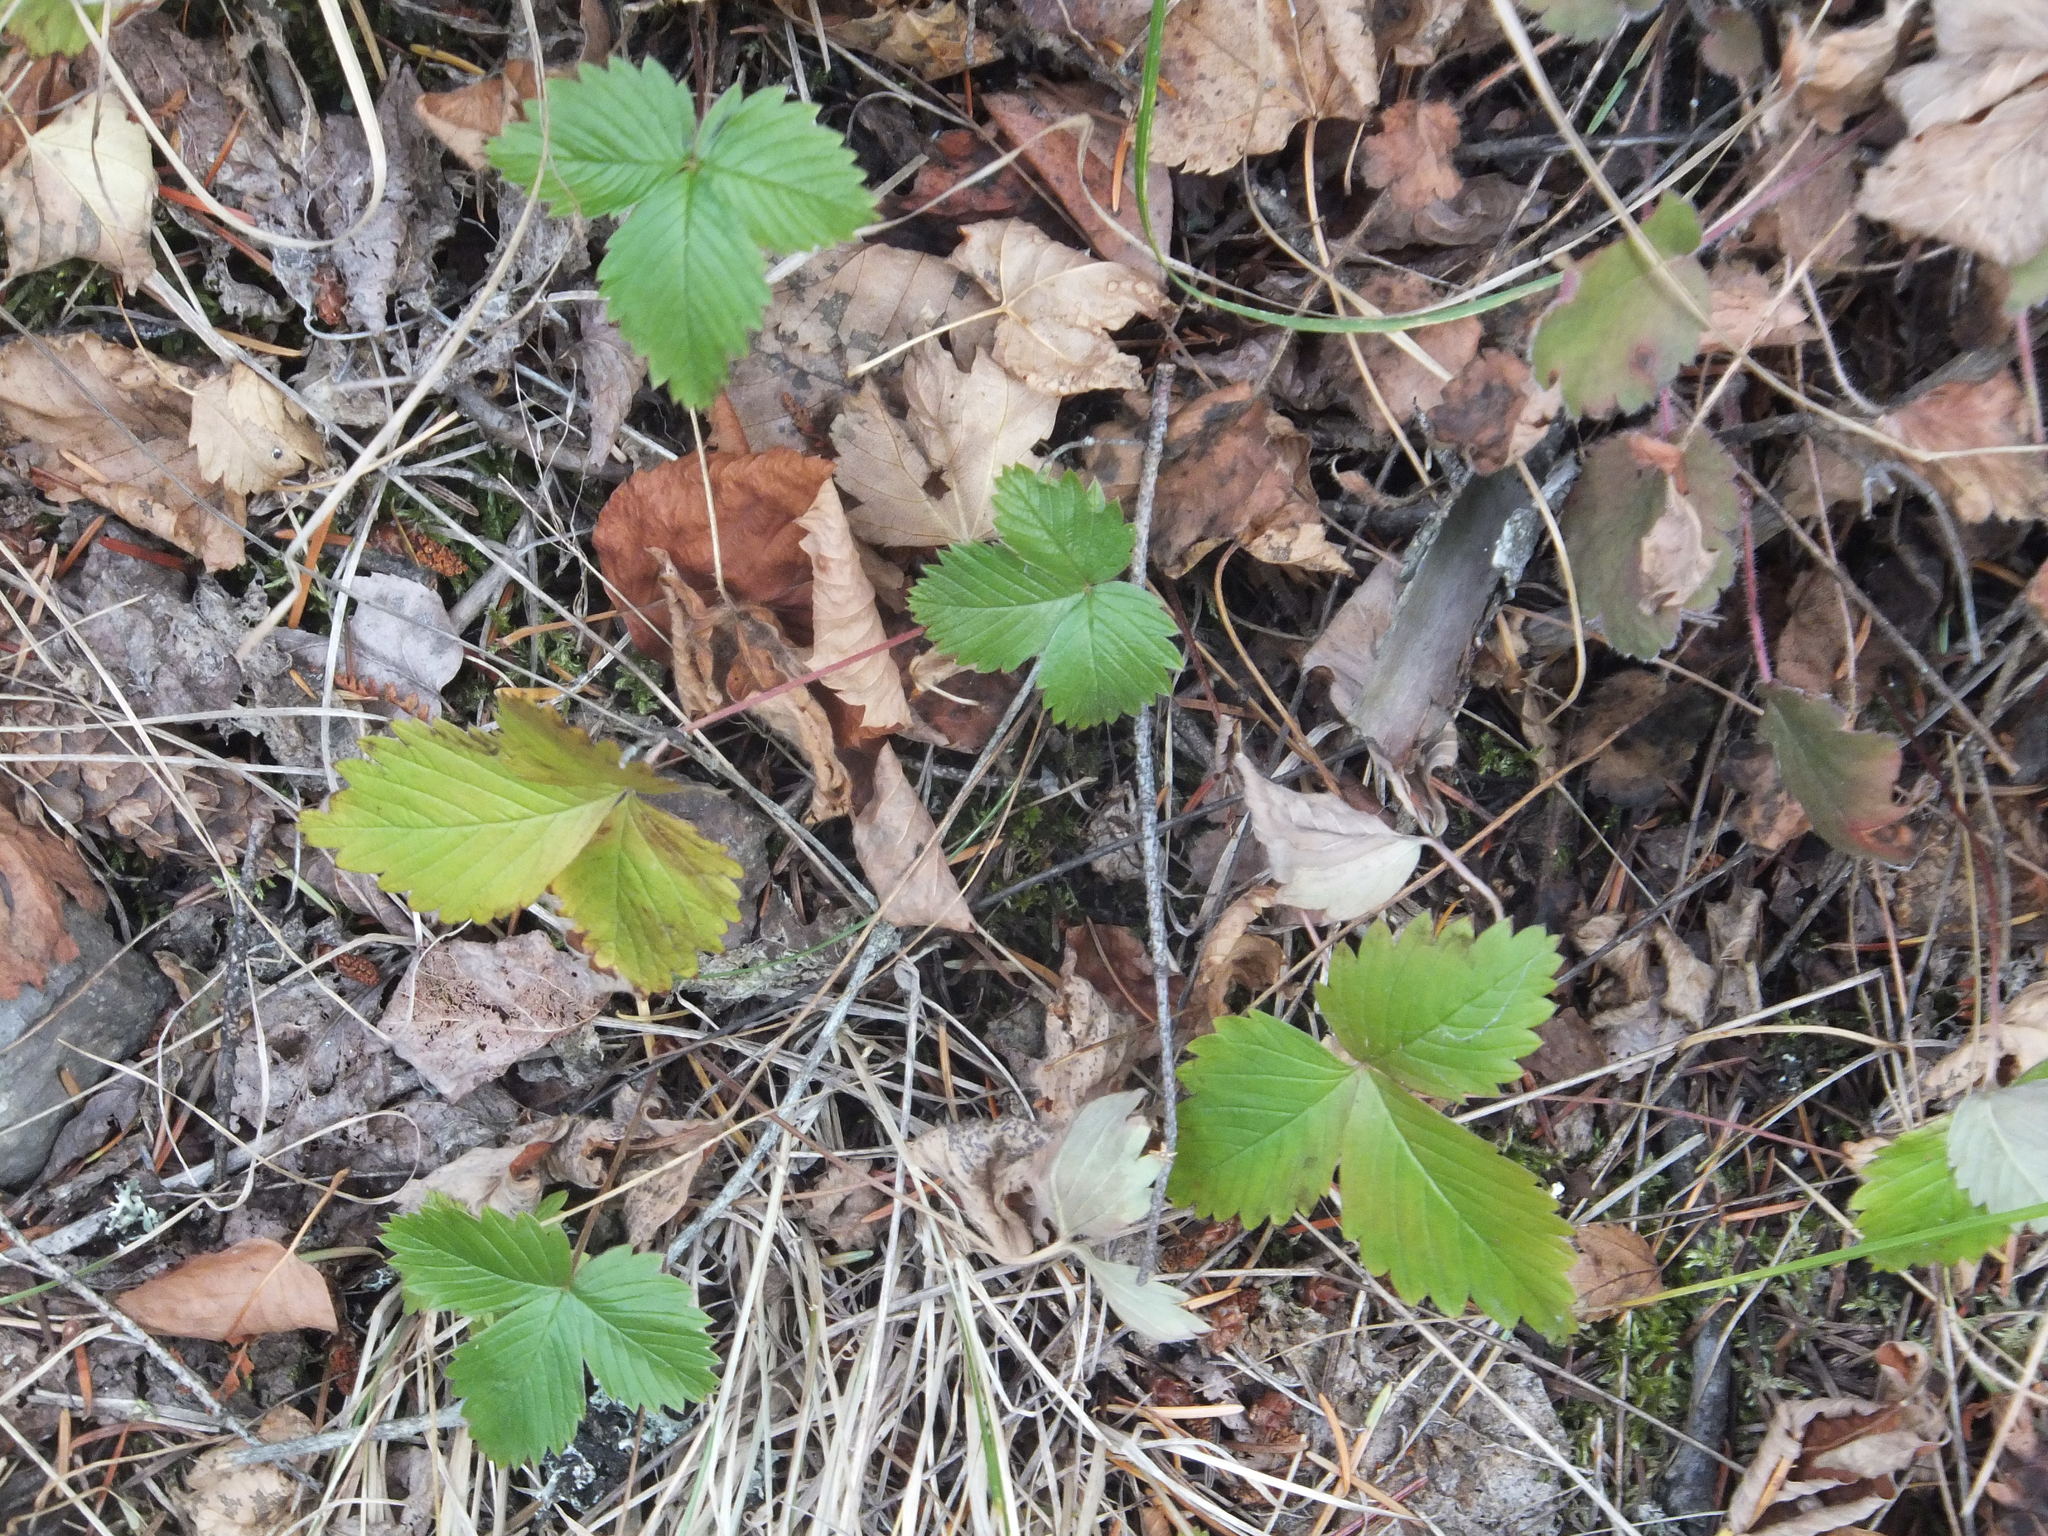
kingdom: Plantae
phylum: Tracheophyta
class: Magnoliopsida
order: Rosales
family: Rosaceae
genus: Fragaria
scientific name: Fragaria vesca
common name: Wild strawberry
